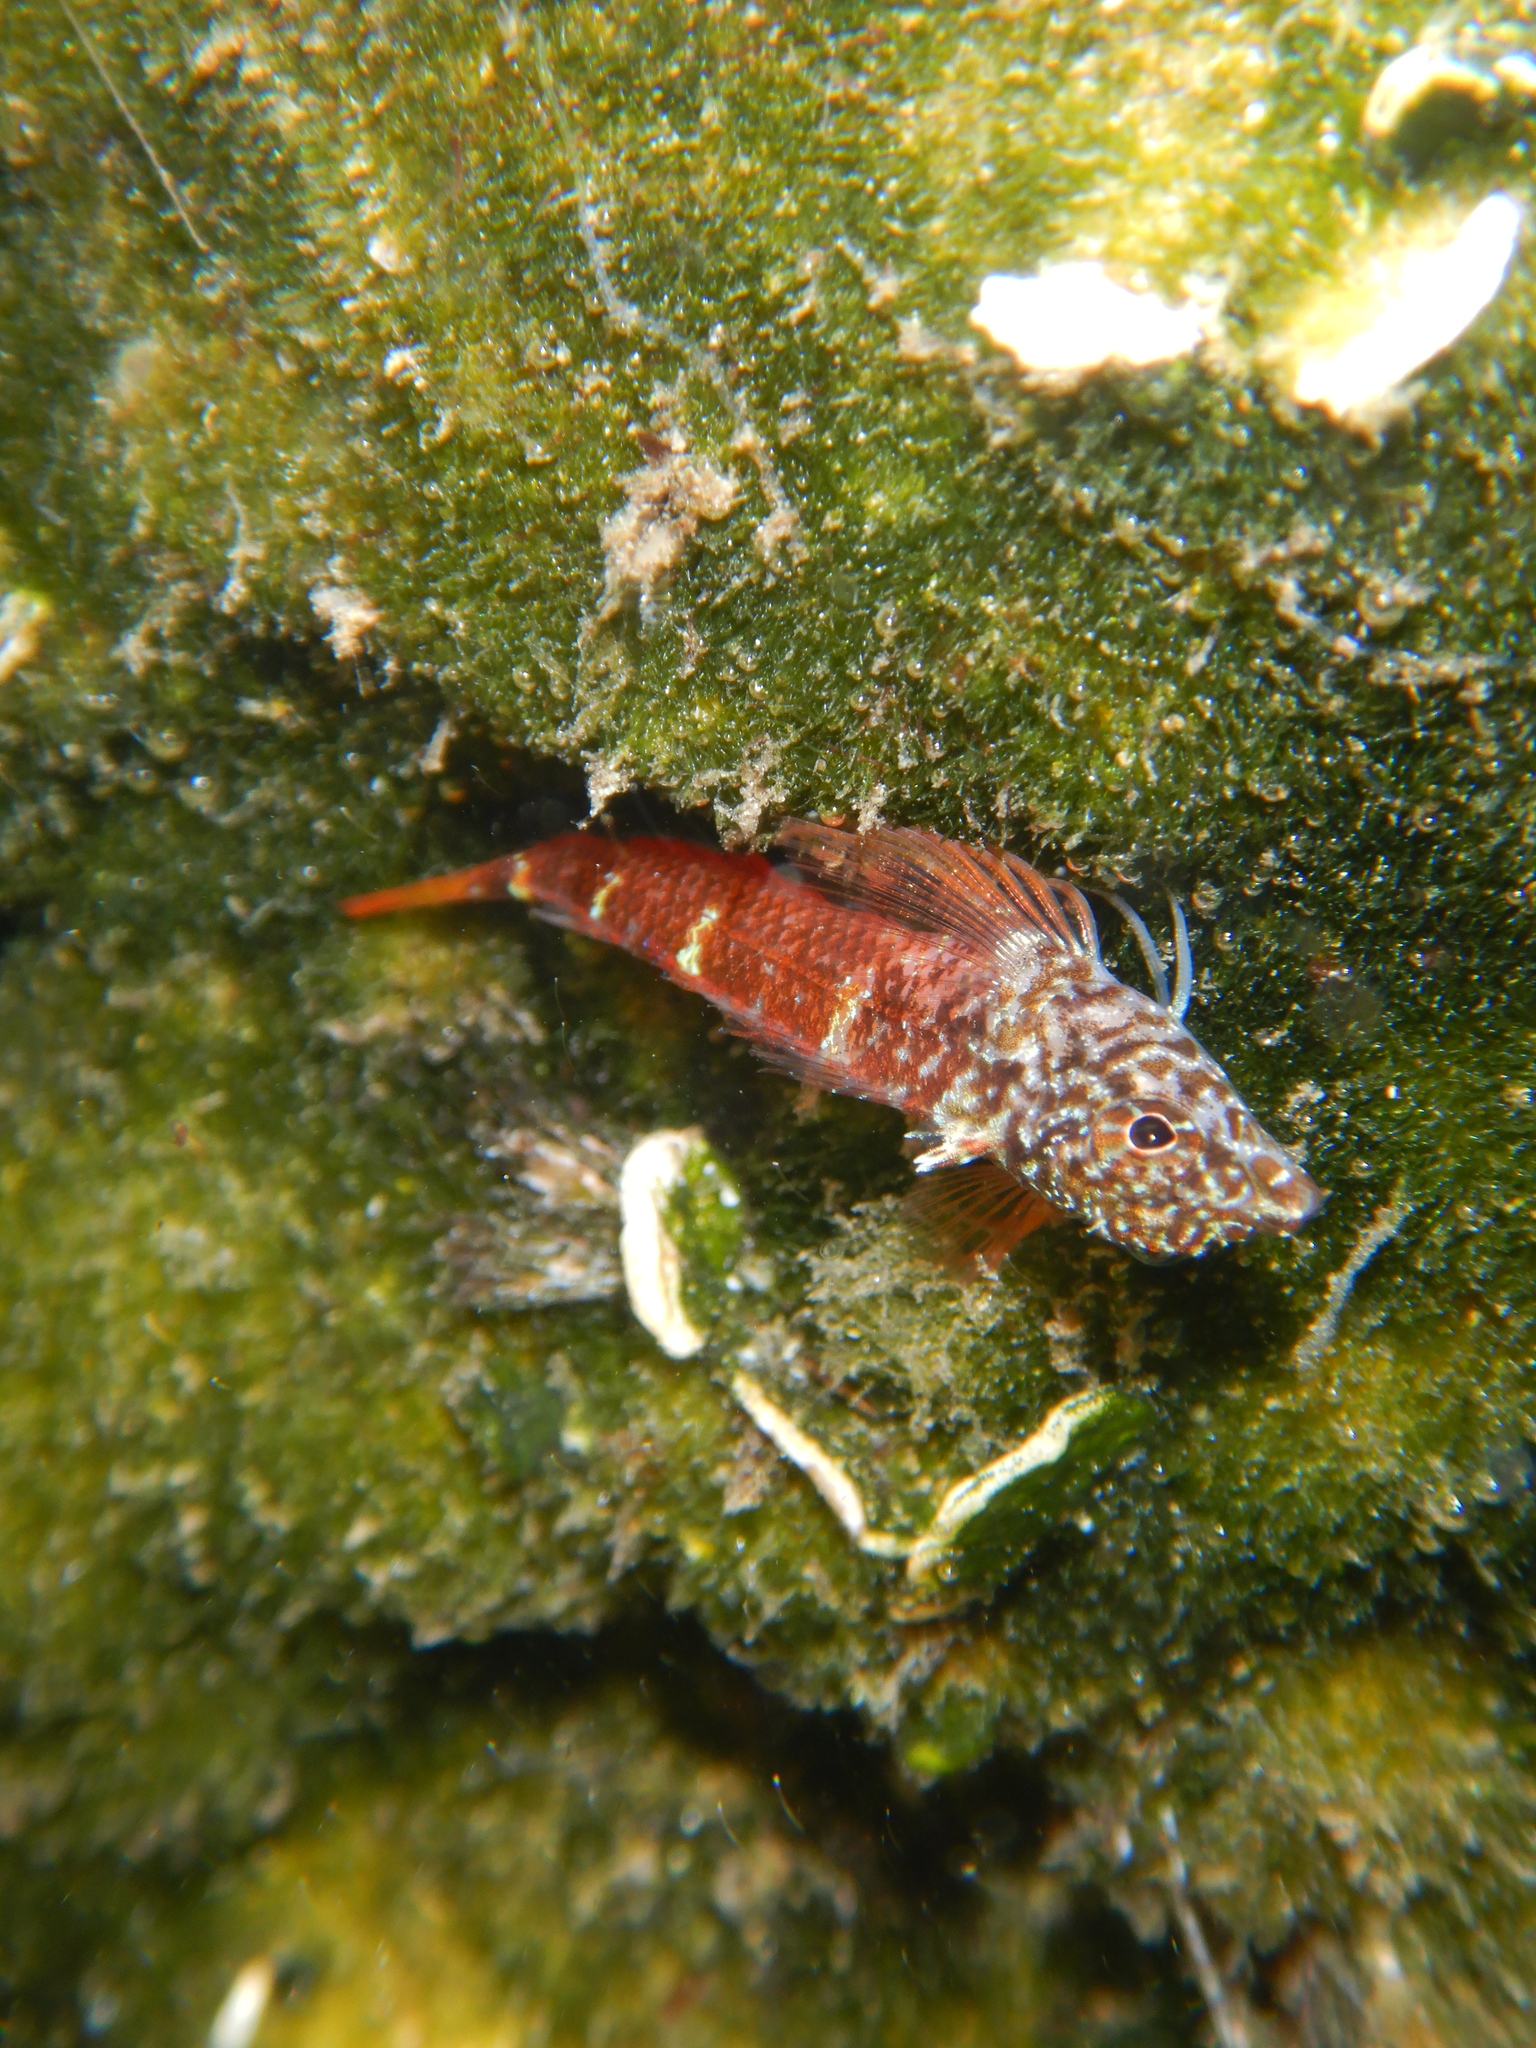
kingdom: Animalia
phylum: Chordata
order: Perciformes
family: Tripterygiidae
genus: Tripterygion
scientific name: Tripterygion melanurum
